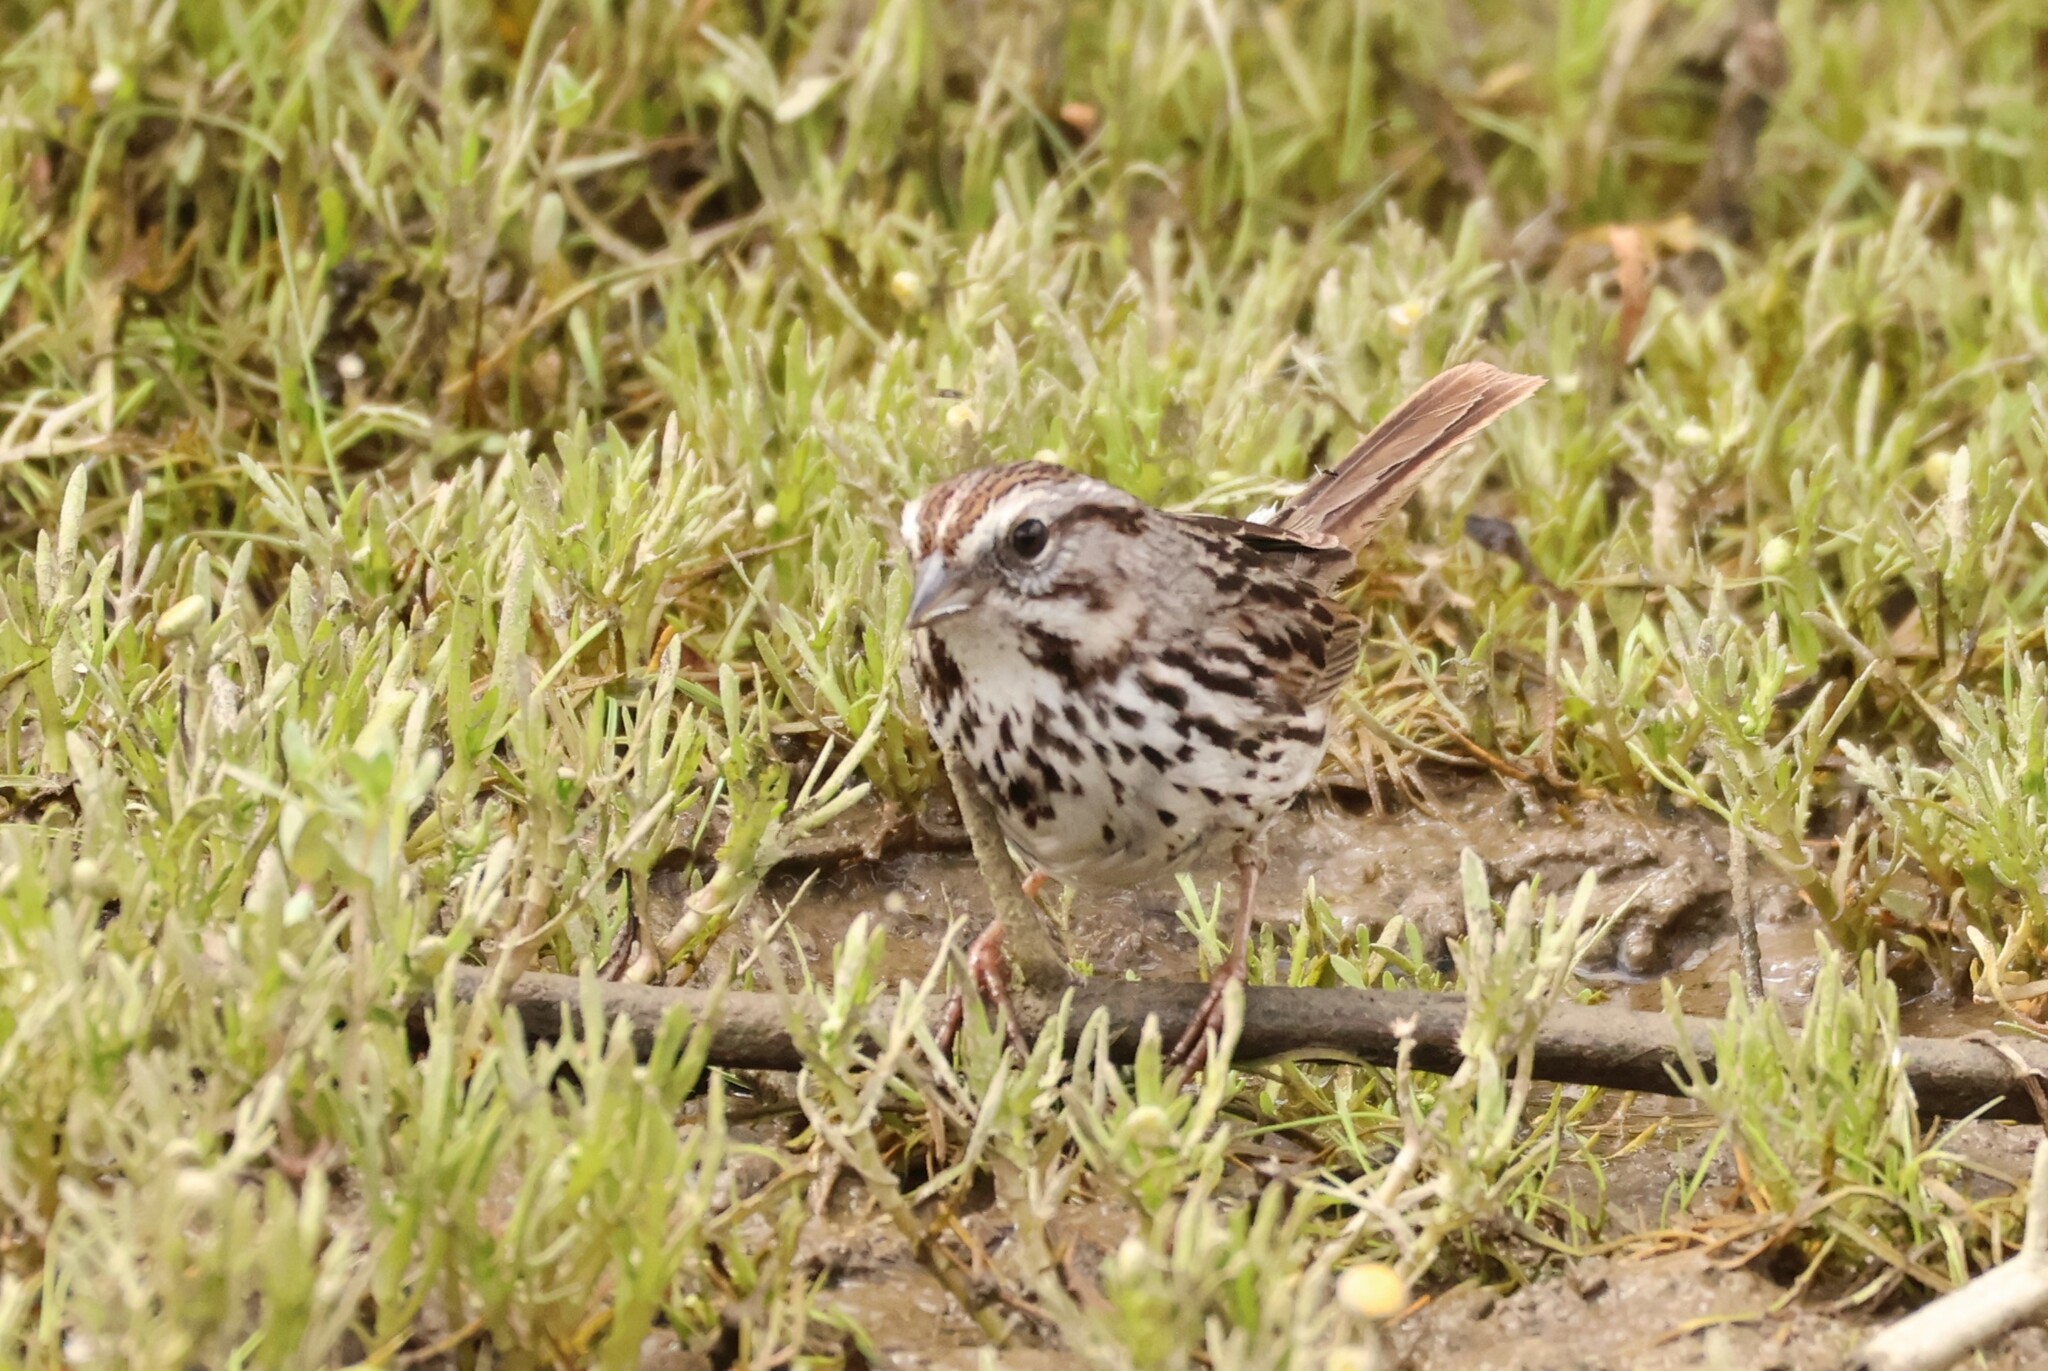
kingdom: Animalia
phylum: Chordata
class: Aves
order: Passeriformes
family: Passerellidae
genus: Melospiza
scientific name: Melospiza melodia
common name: Song sparrow
